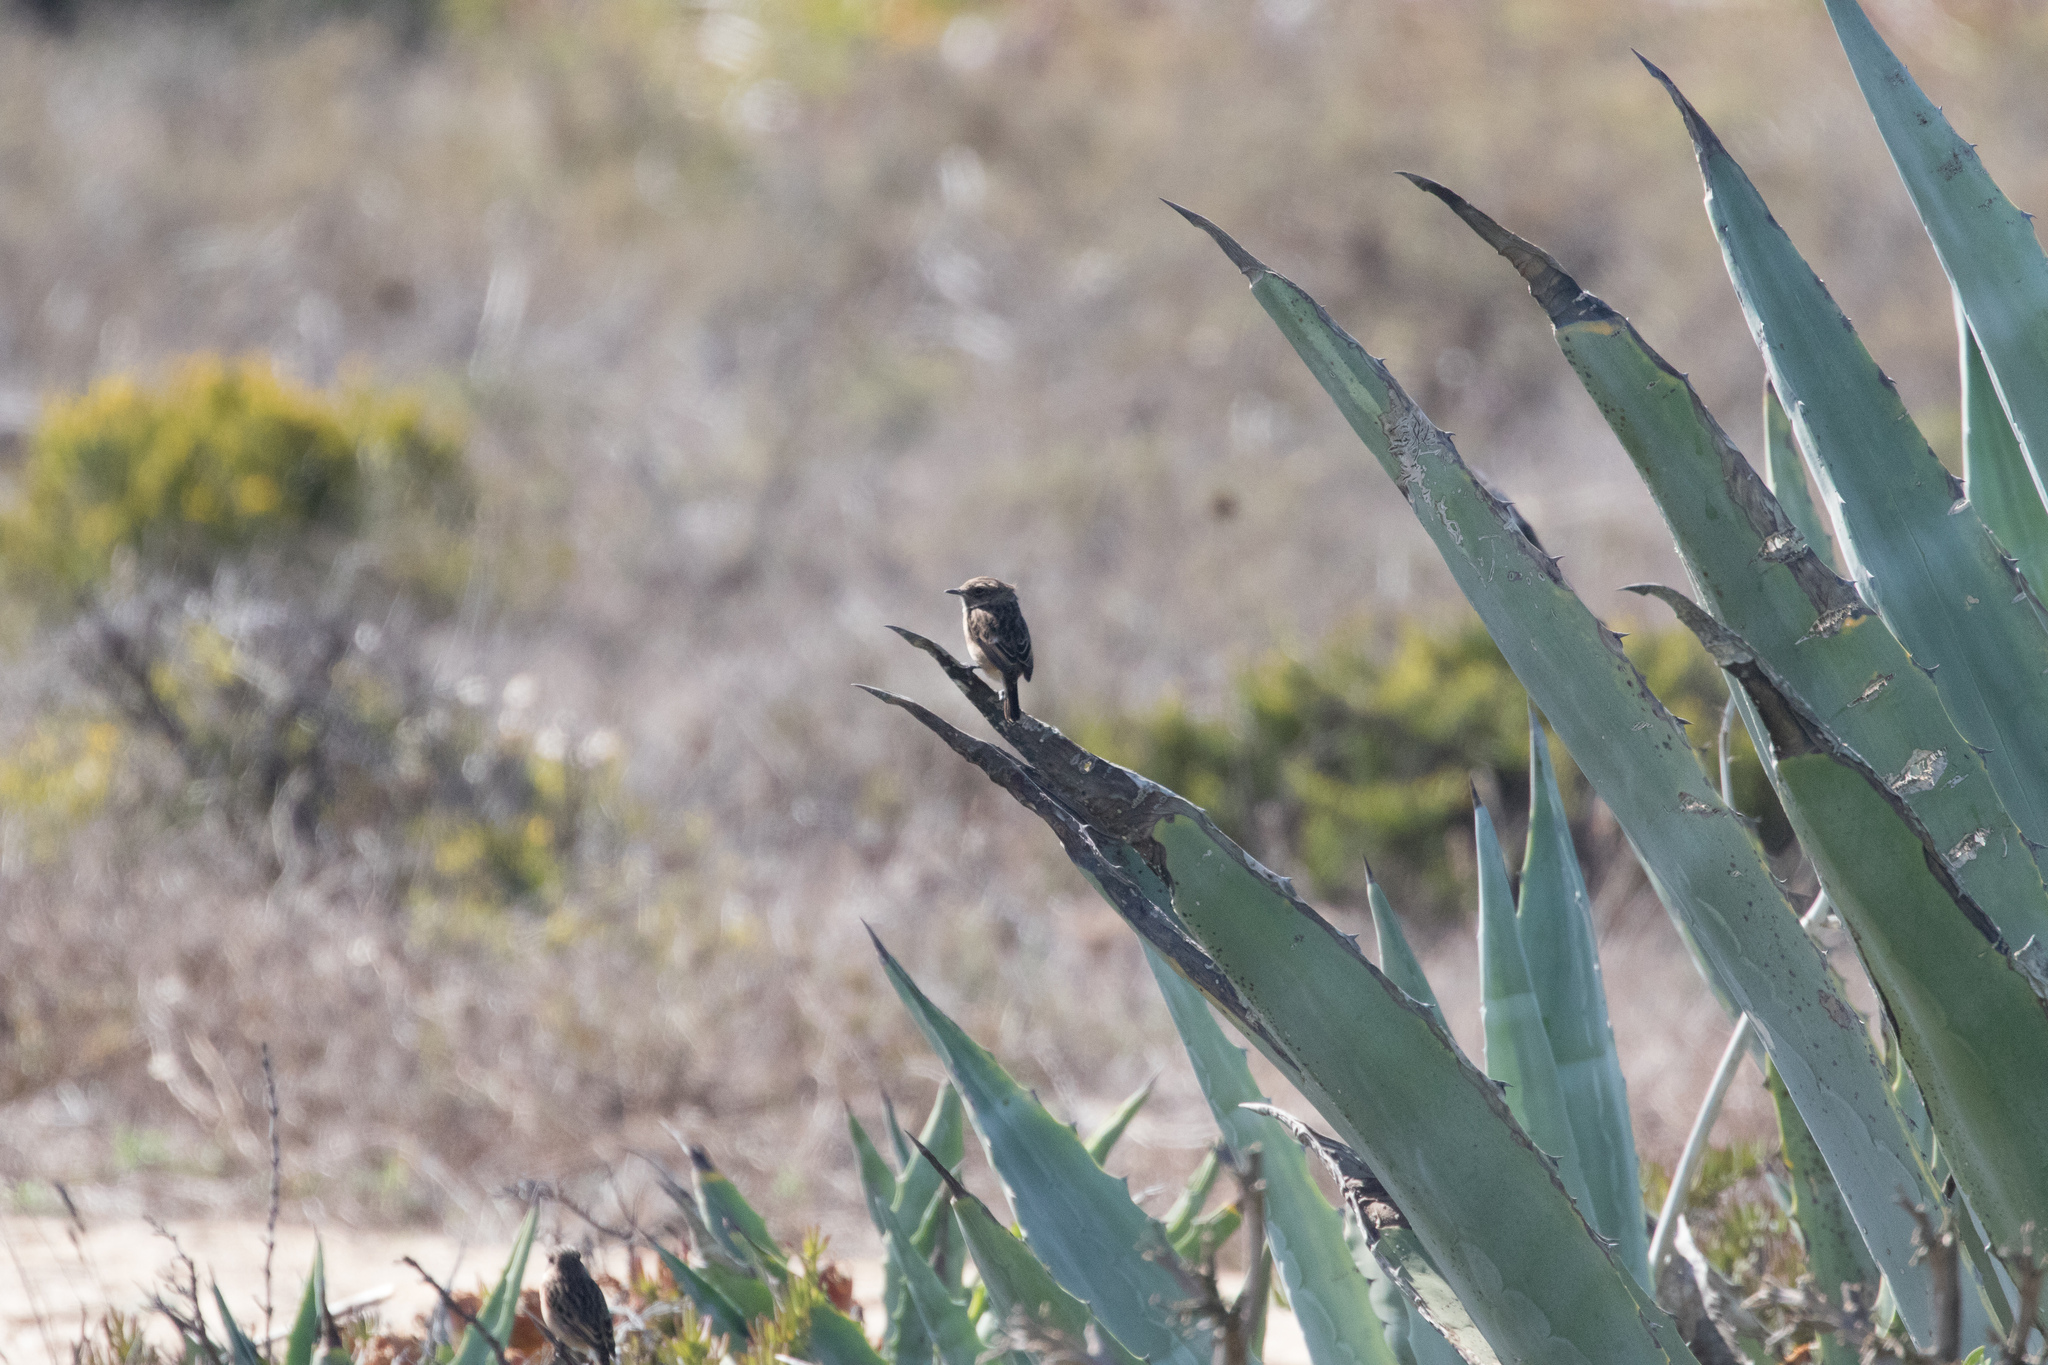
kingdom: Animalia
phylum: Chordata
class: Aves
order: Passeriformes
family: Muscicapidae
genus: Saxicola
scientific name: Saxicola rubicola
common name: European stonechat
